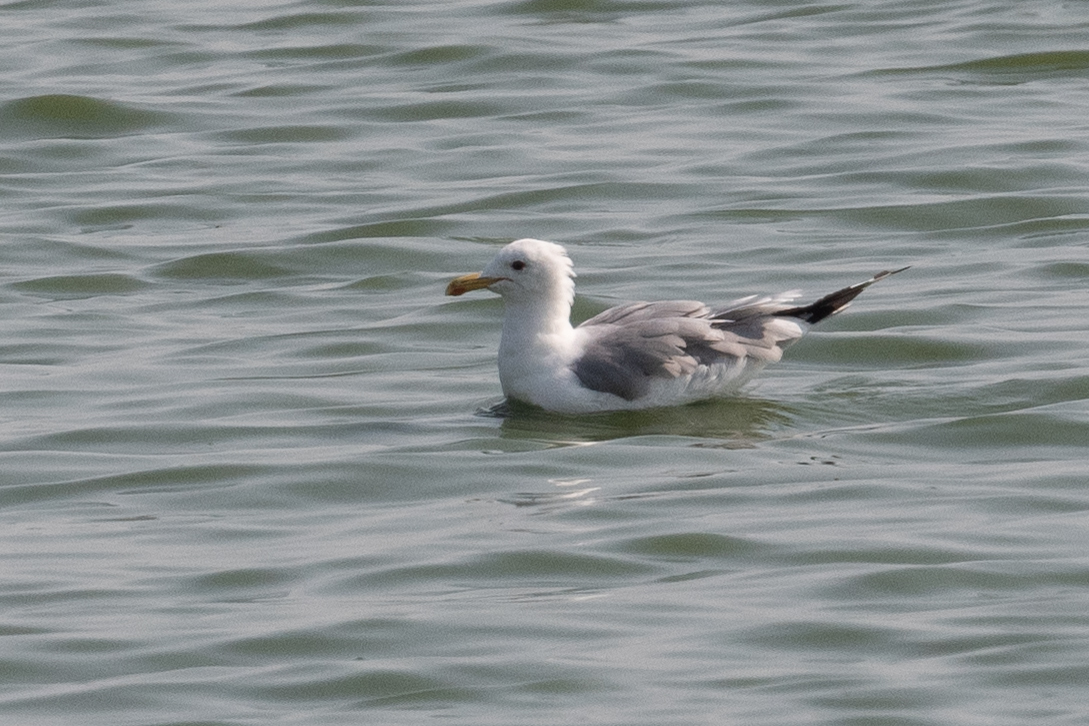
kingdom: Animalia
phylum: Chordata
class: Aves
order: Charadriiformes
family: Laridae
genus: Larus
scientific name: Larus californicus
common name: California gull
